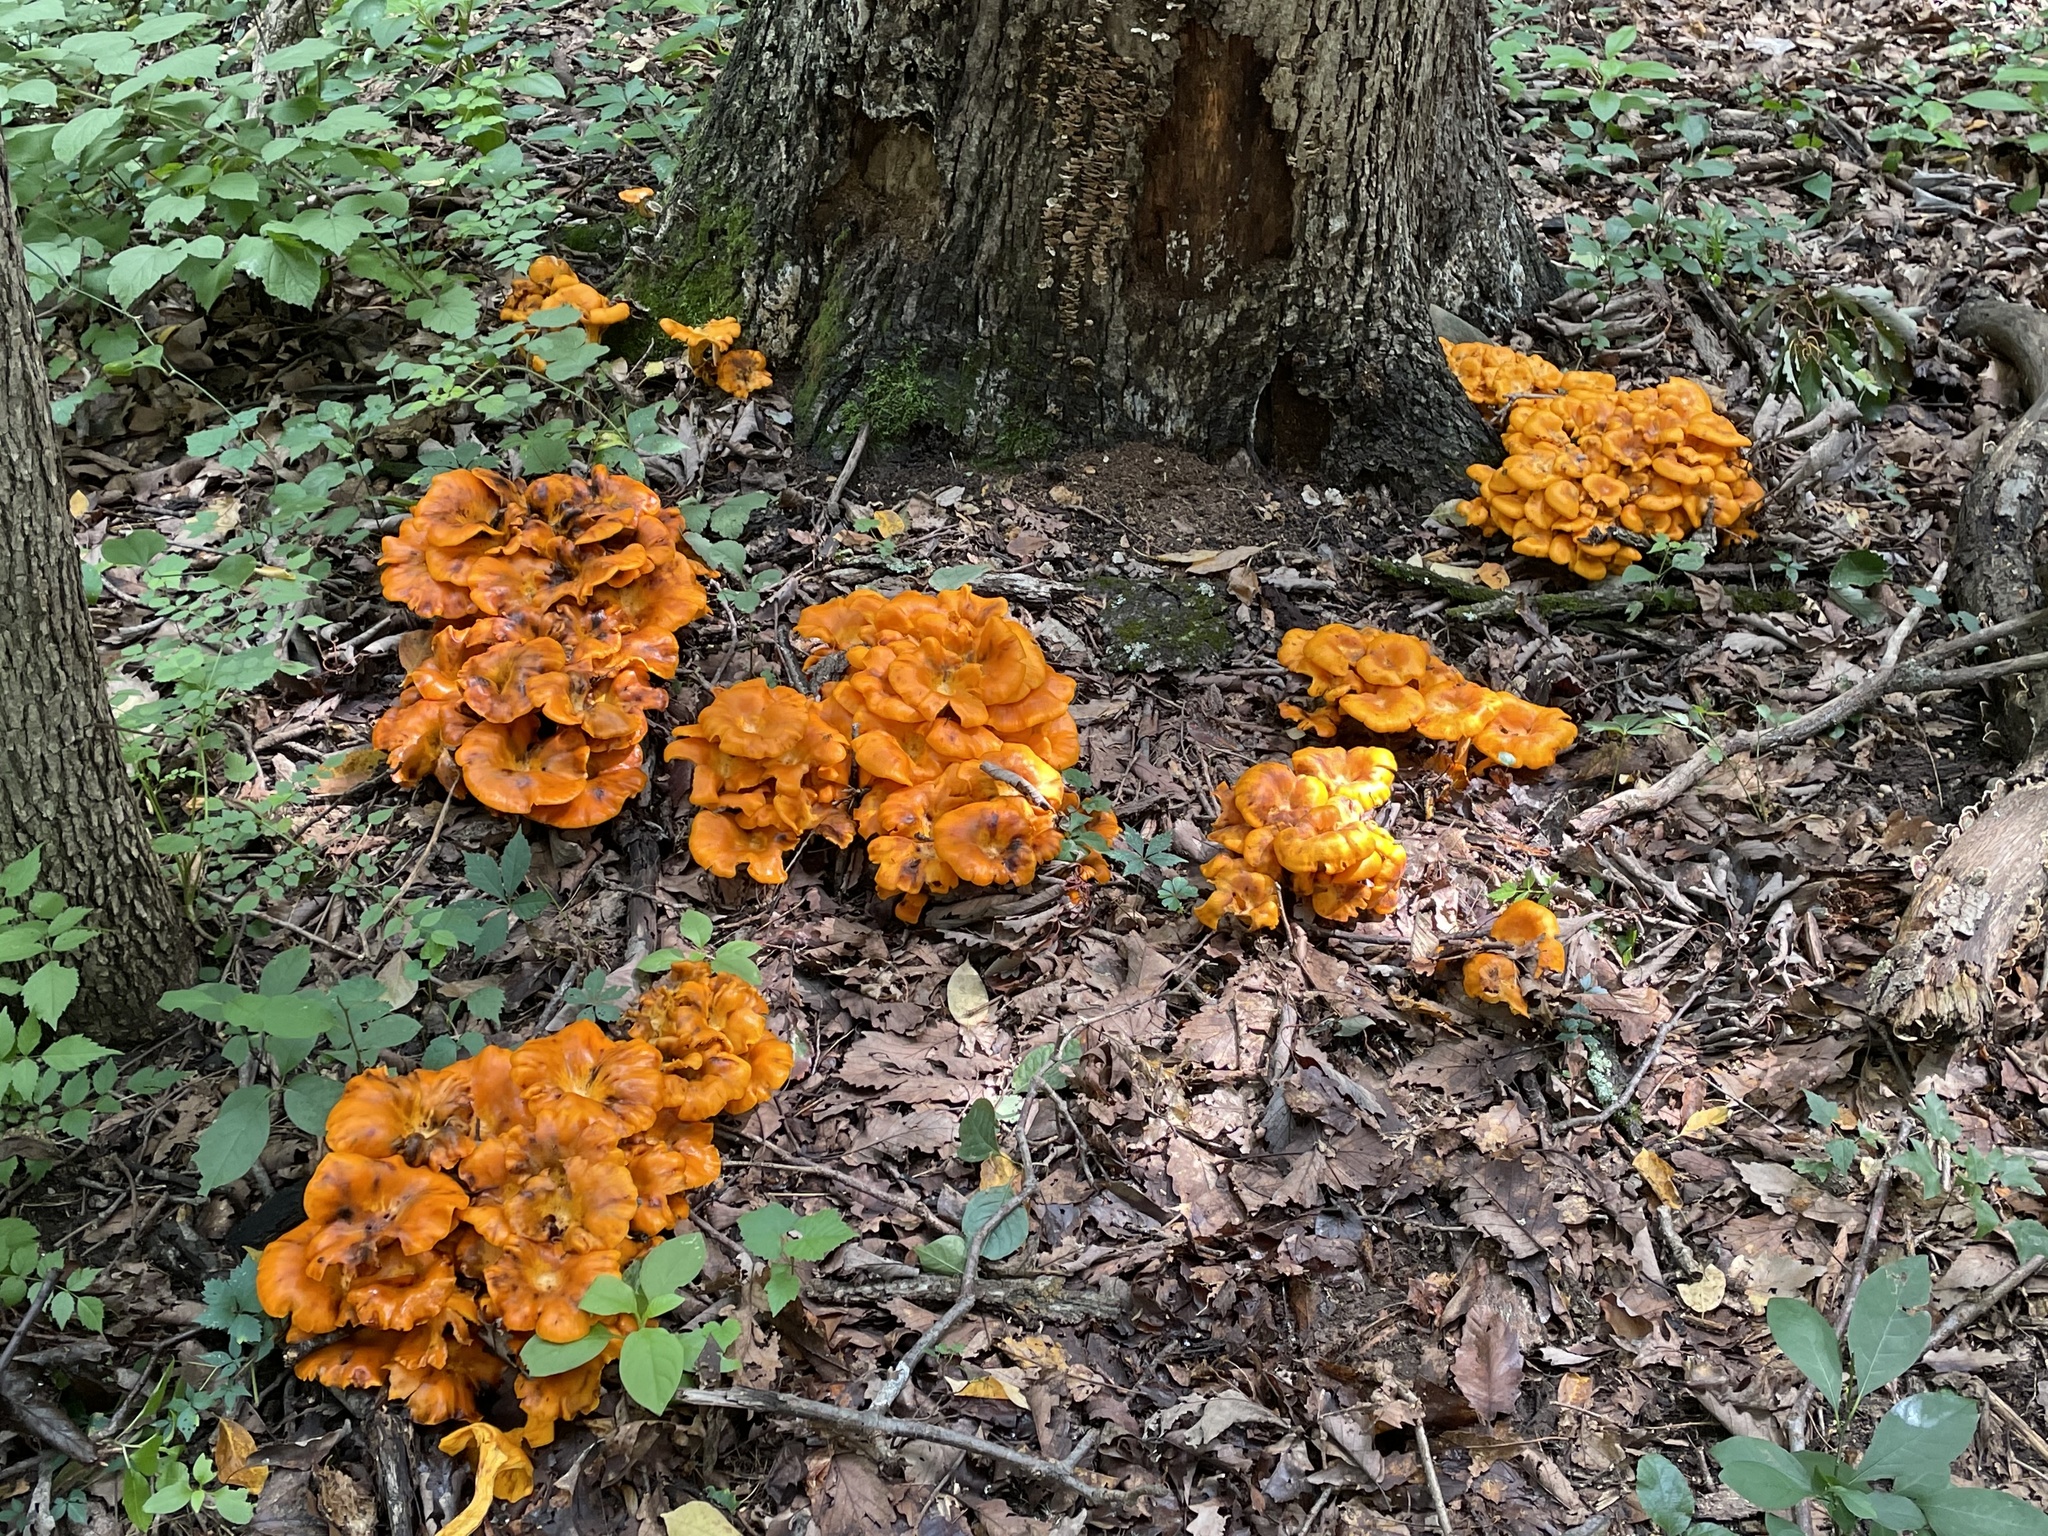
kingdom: Fungi
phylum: Basidiomycota
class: Agaricomycetes
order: Agaricales
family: Omphalotaceae
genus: Omphalotus
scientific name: Omphalotus illudens
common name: Jack o lantern
